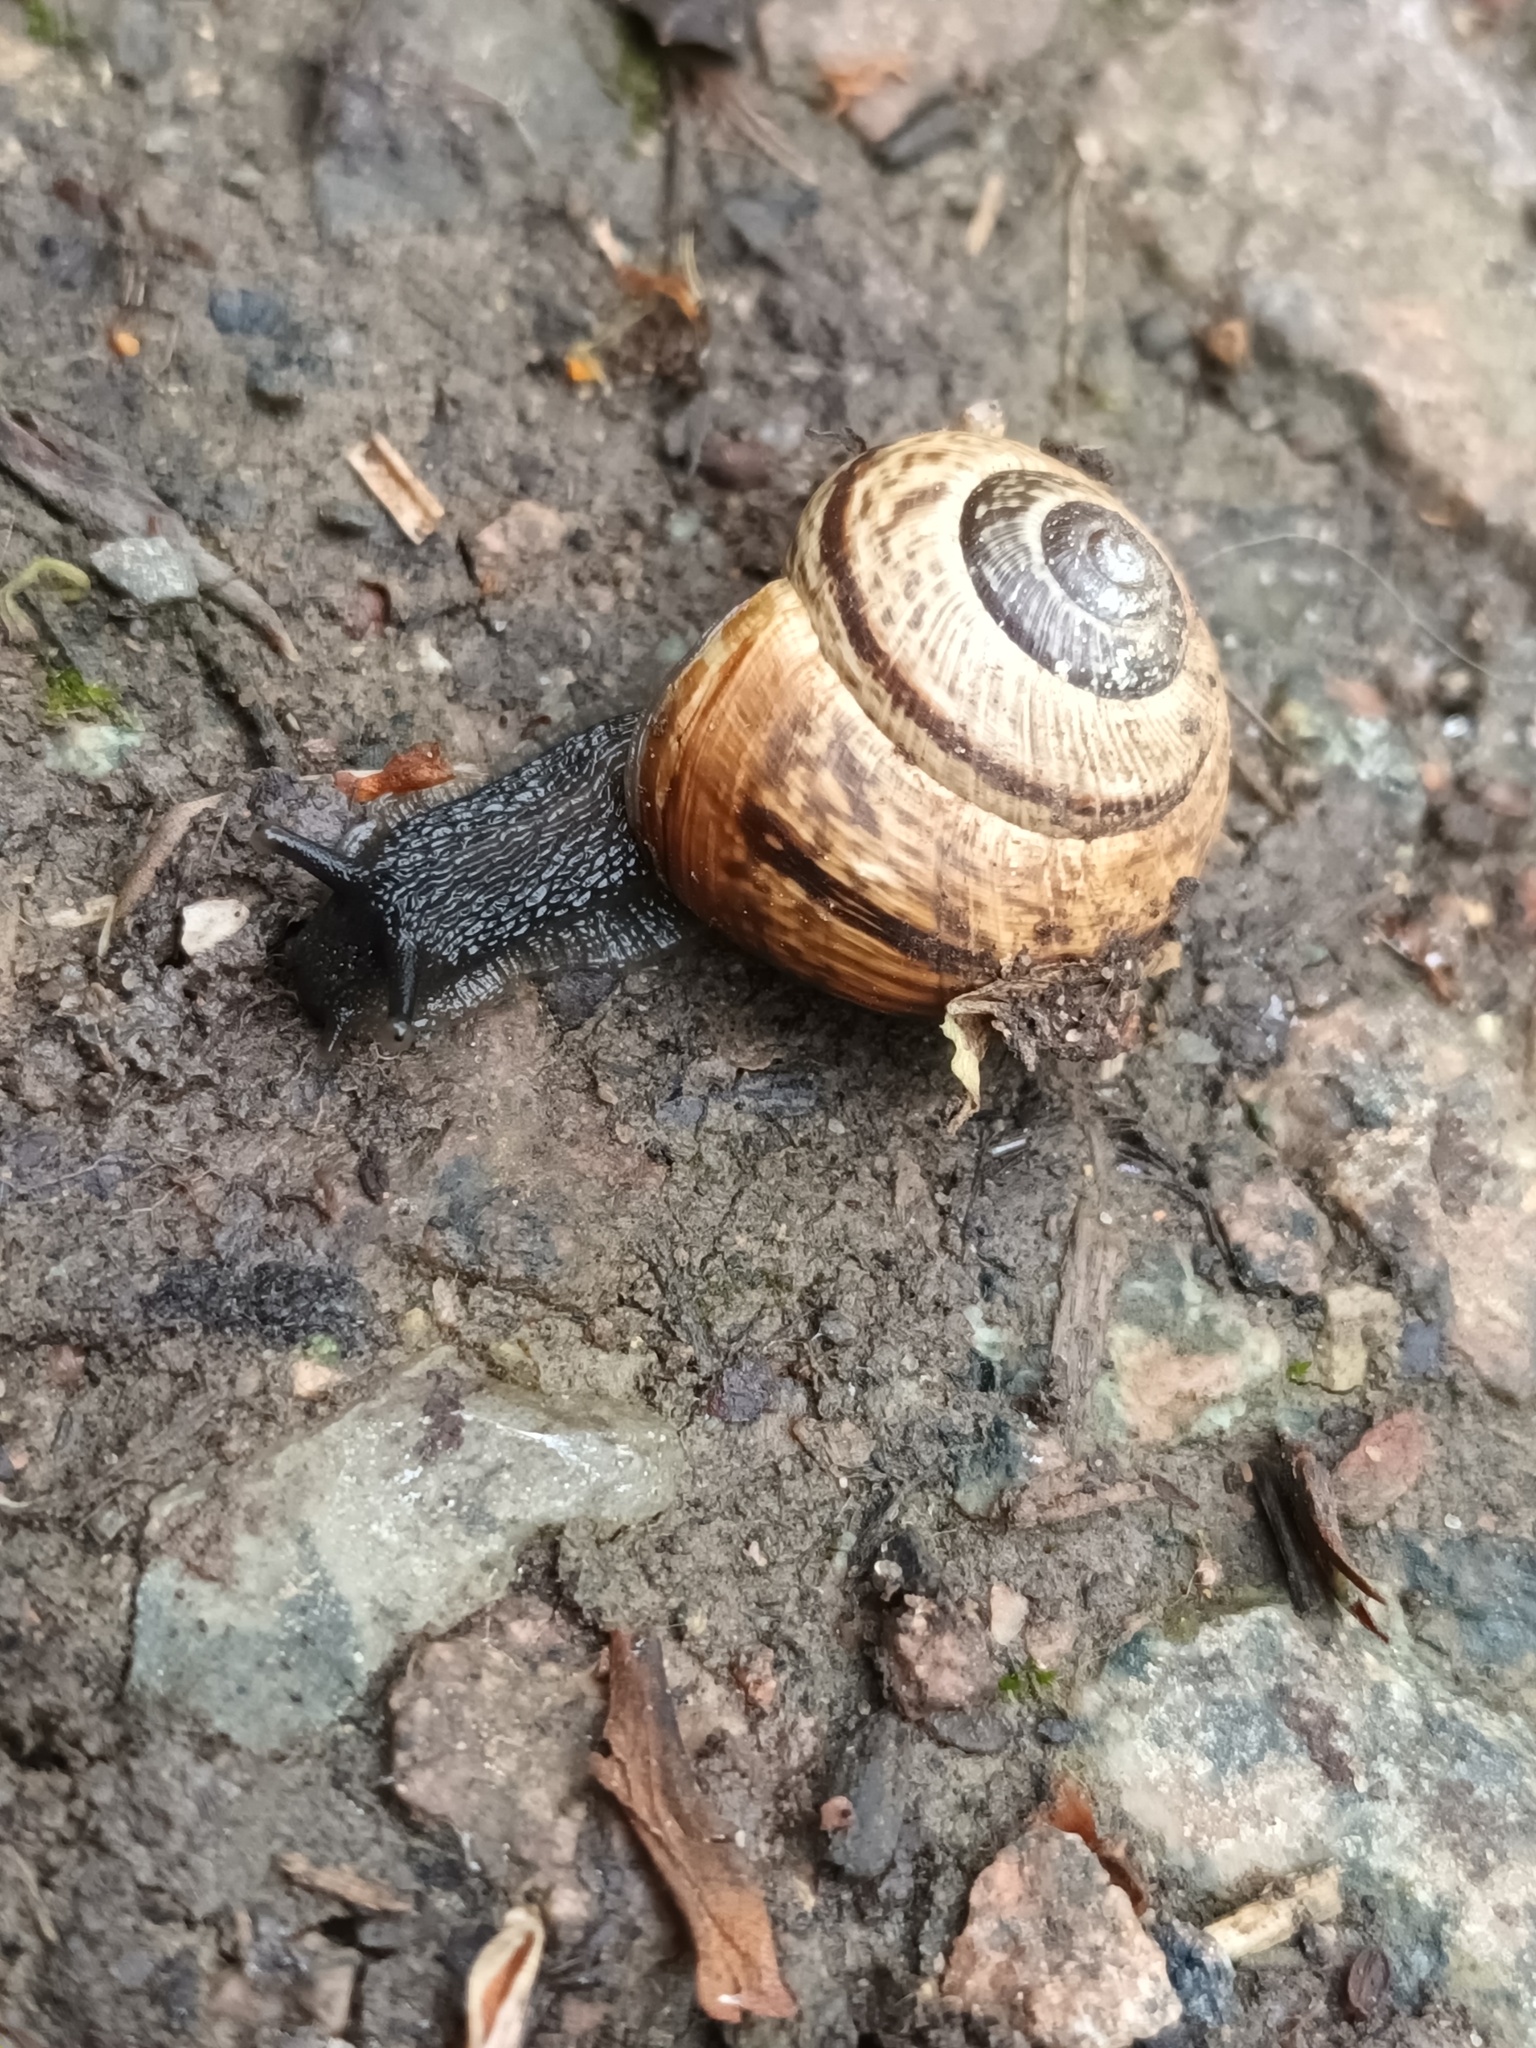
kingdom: Animalia
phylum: Mollusca
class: Gastropoda
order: Stylommatophora
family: Helicidae
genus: Arianta
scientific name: Arianta arbustorum
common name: Copse snail
